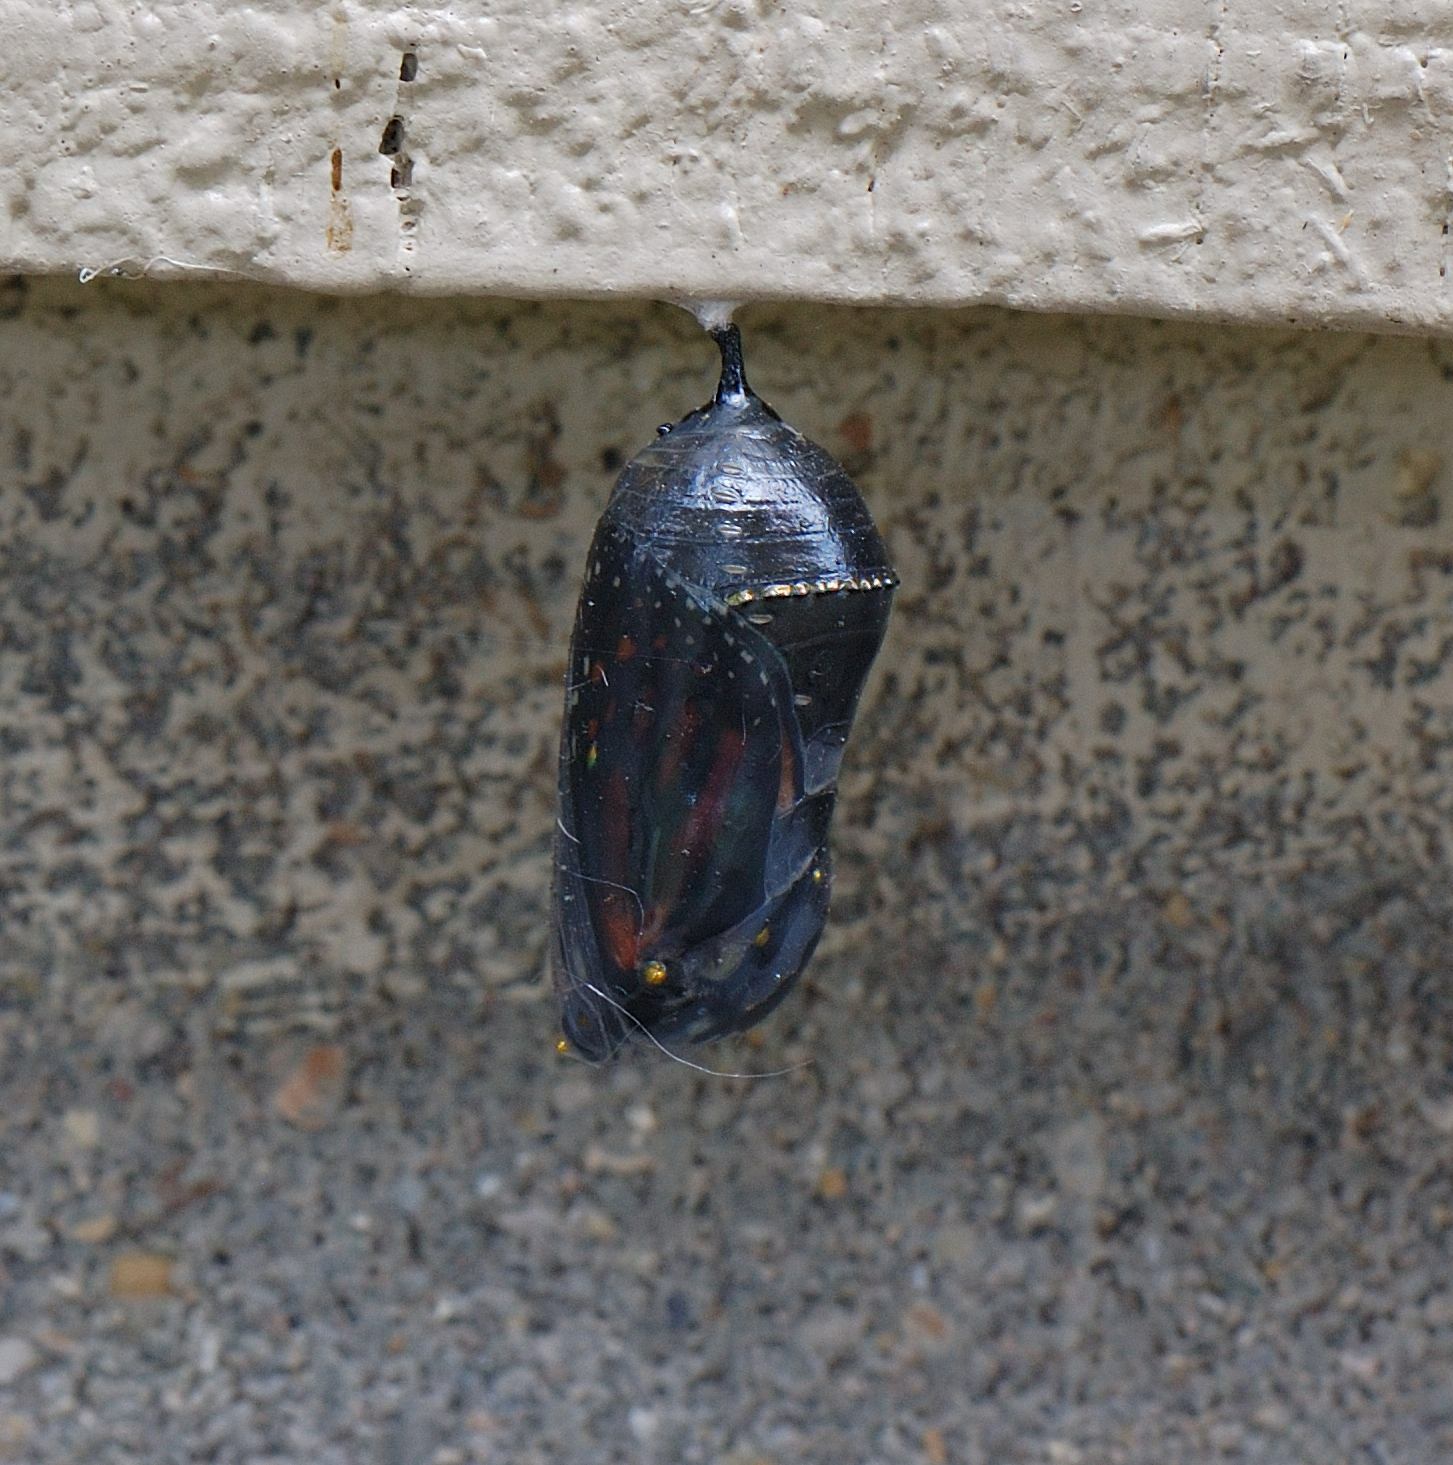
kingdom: Animalia
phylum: Arthropoda
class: Insecta
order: Lepidoptera
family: Nymphalidae
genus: Danaus
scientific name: Danaus plexippus
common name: Monarch
